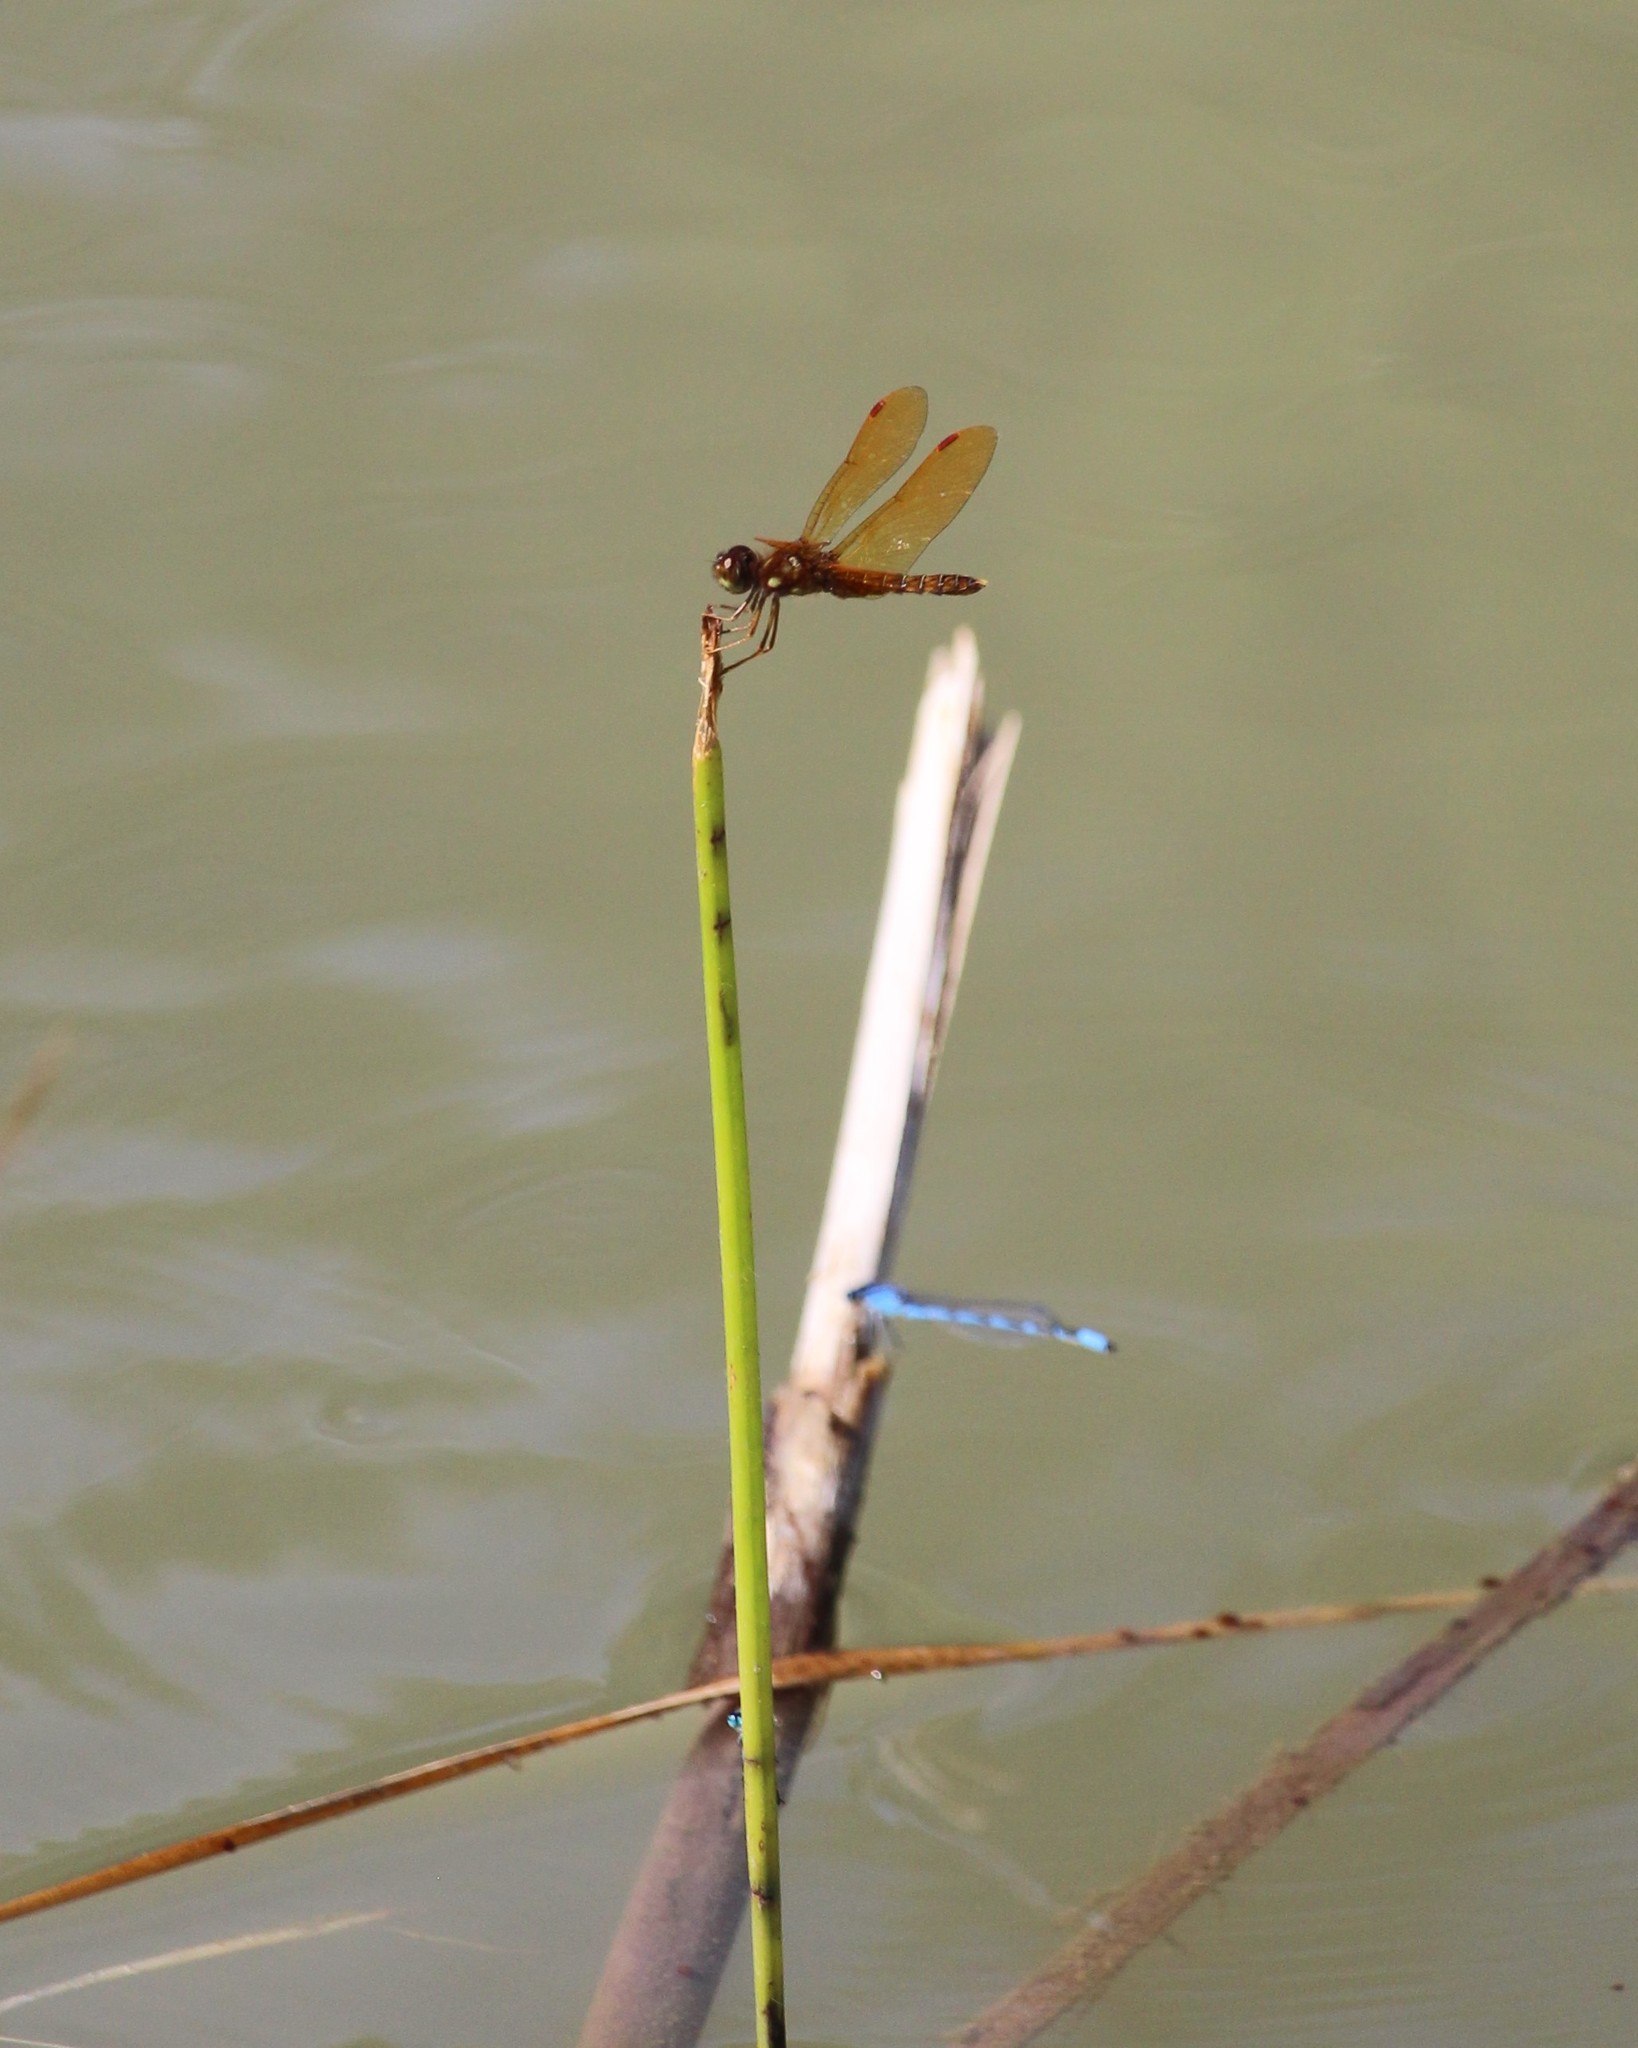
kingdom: Animalia
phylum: Arthropoda
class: Insecta
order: Odonata
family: Libellulidae
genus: Perithemis
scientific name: Perithemis tenera
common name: Eastern amberwing
